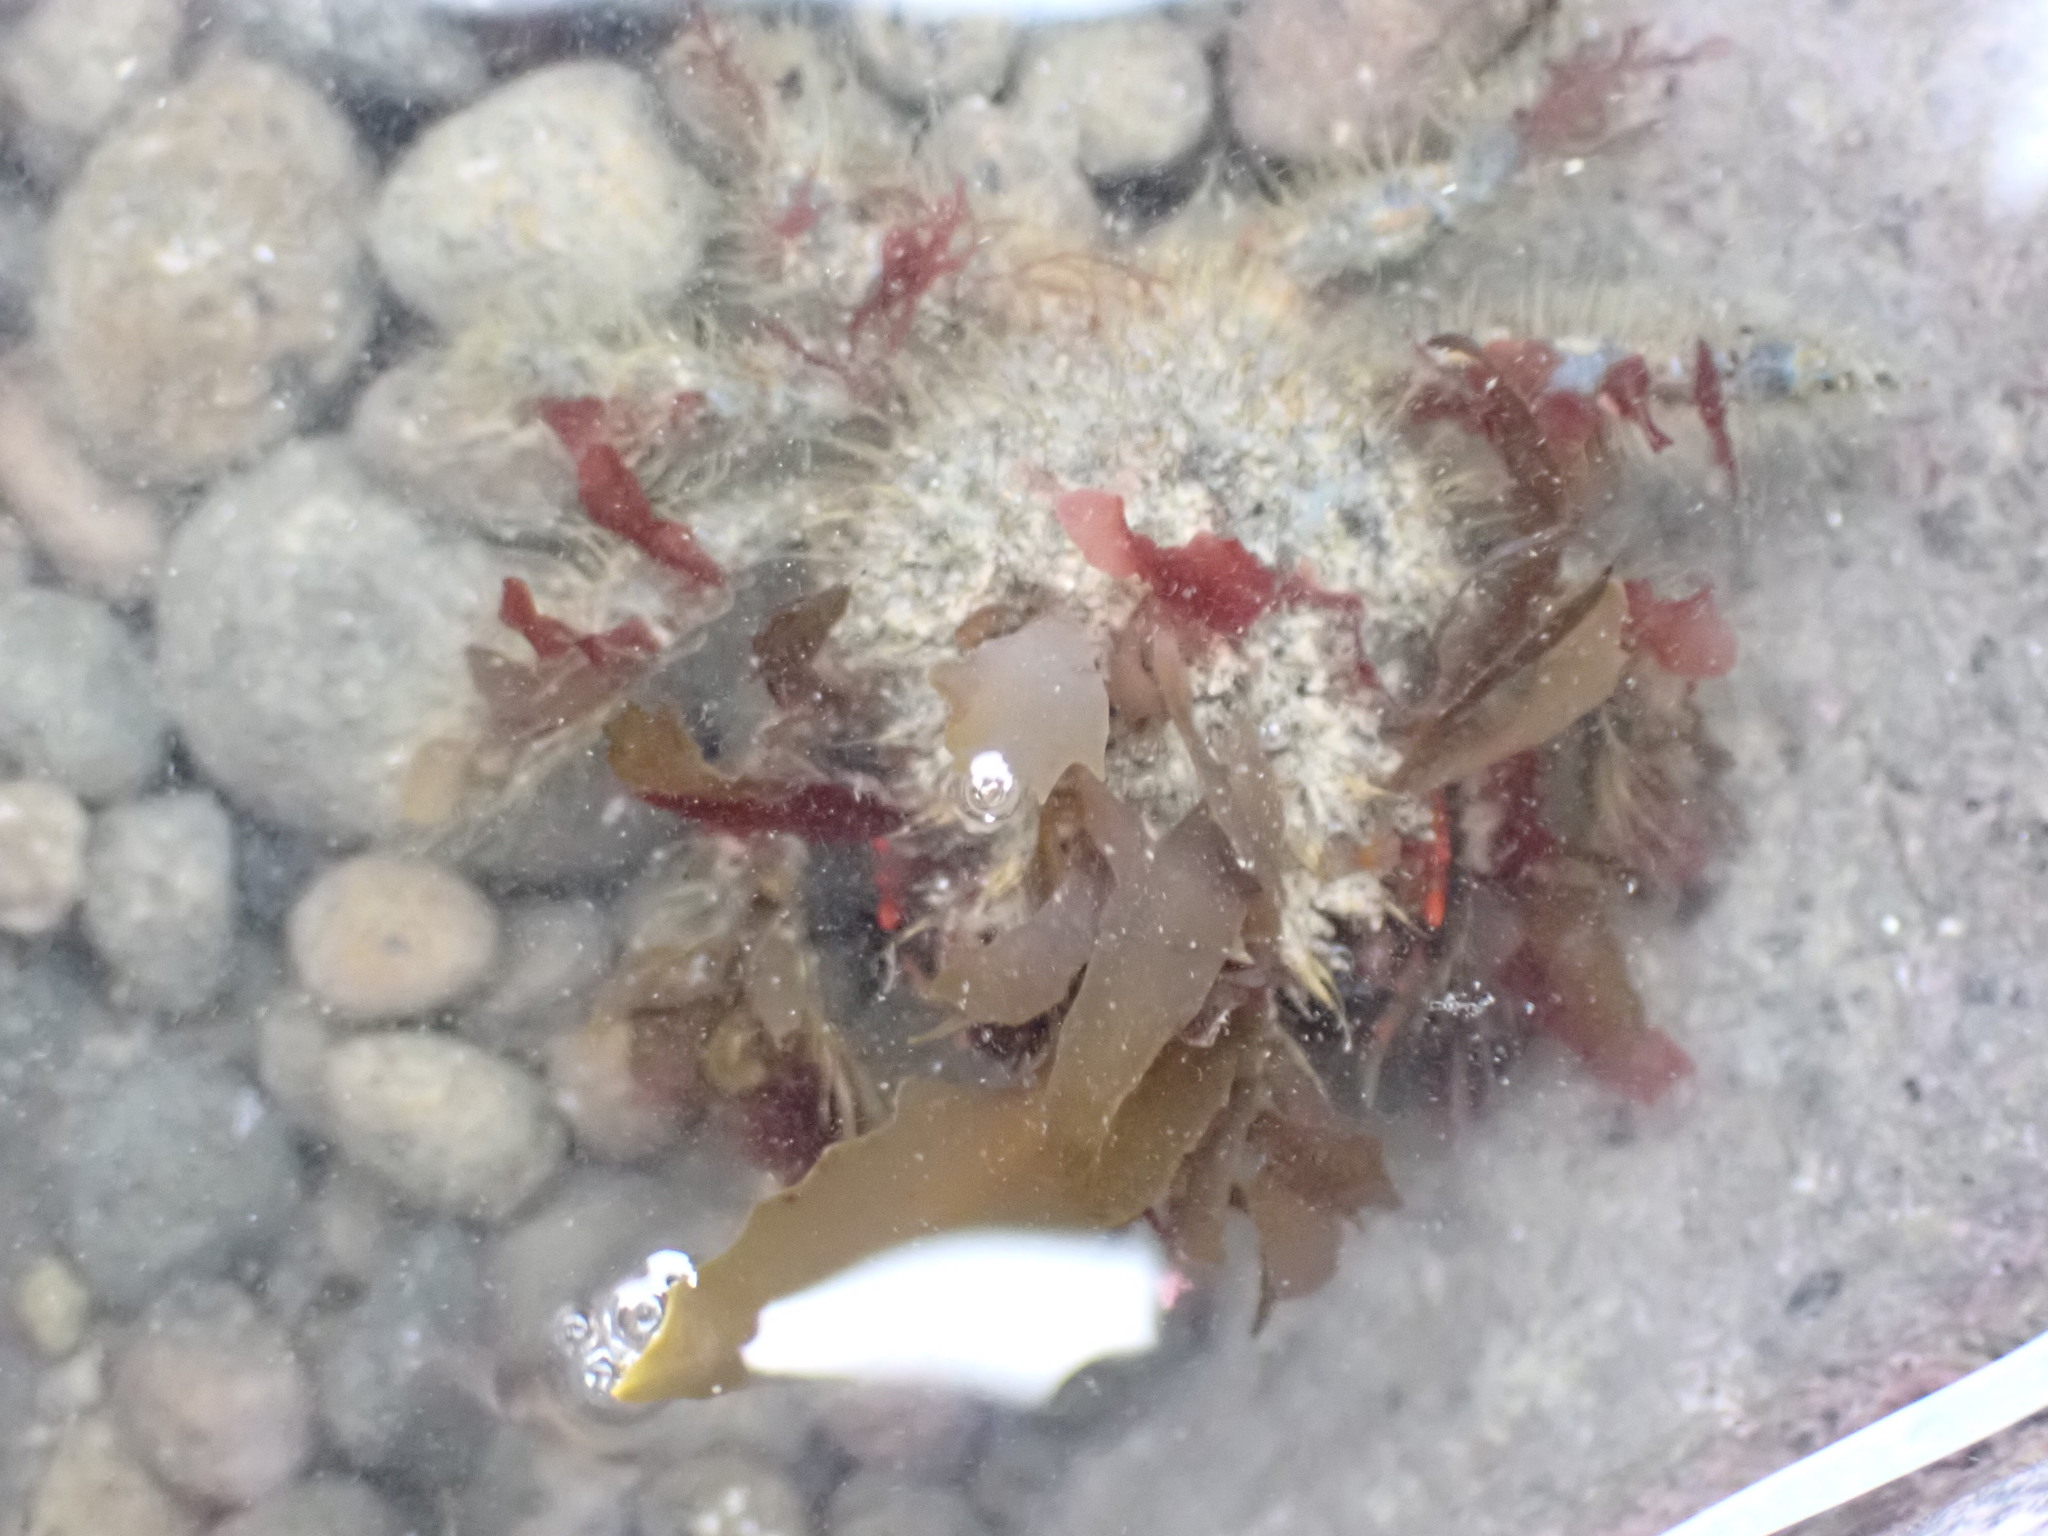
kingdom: Animalia
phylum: Arthropoda
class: Malacostraca
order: Decapoda
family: Majidae
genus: Notomithrax
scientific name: Notomithrax ursus
